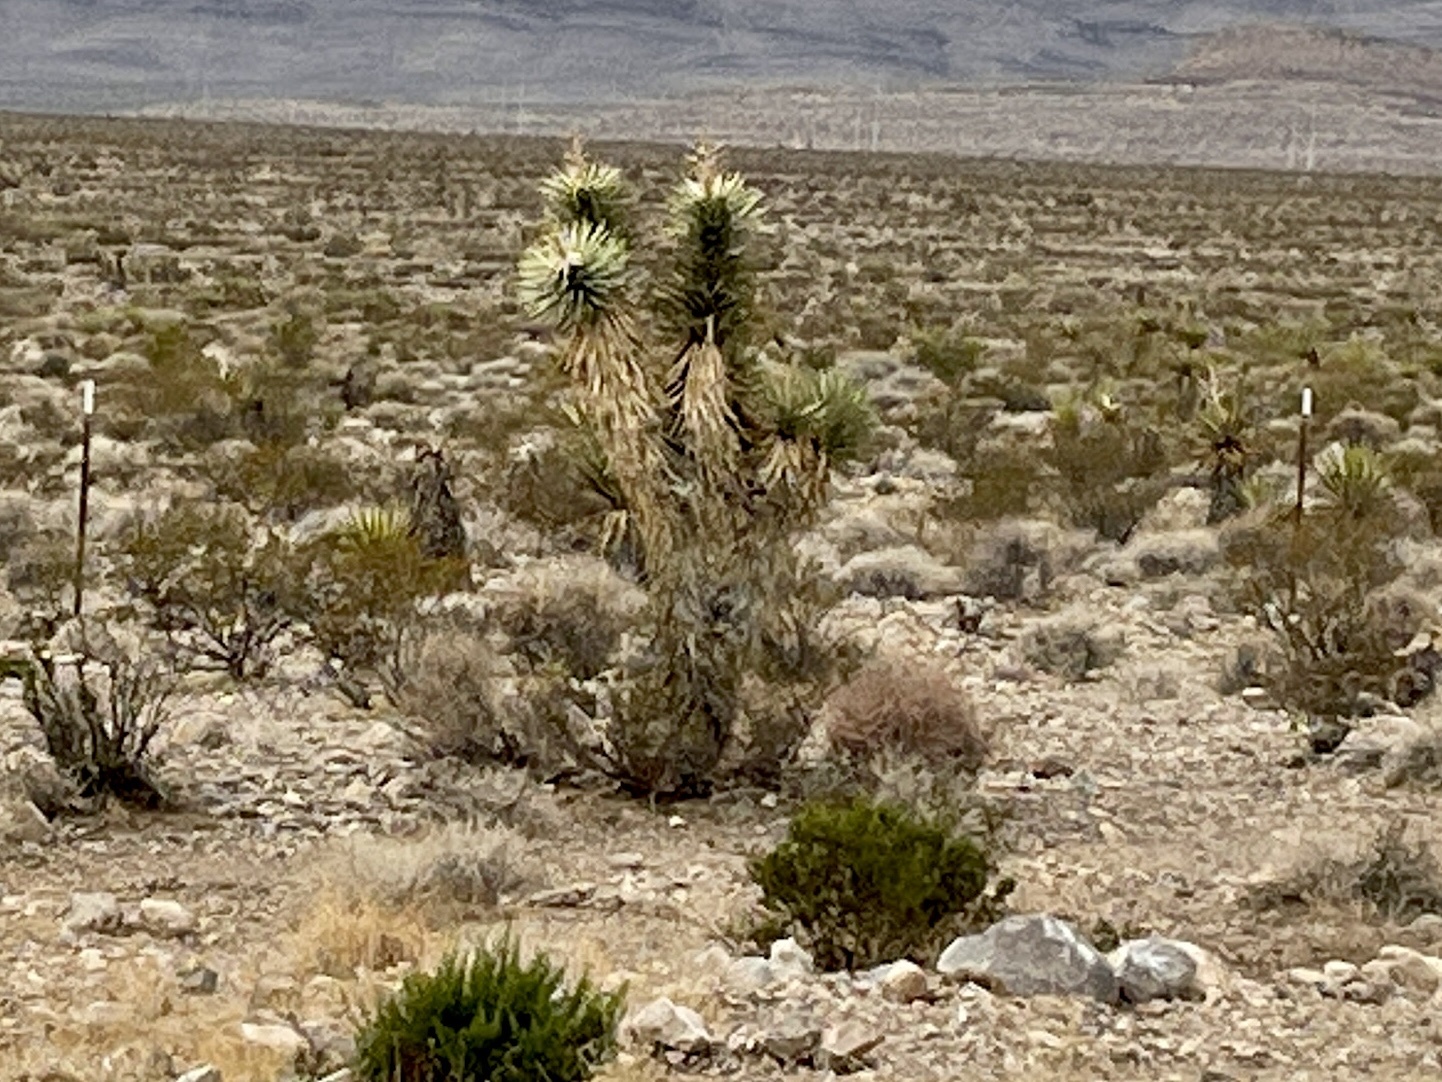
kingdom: Plantae
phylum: Tracheophyta
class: Liliopsida
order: Asparagales
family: Asparagaceae
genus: Yucca
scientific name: Yucca brevifolia
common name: Joshua tree
